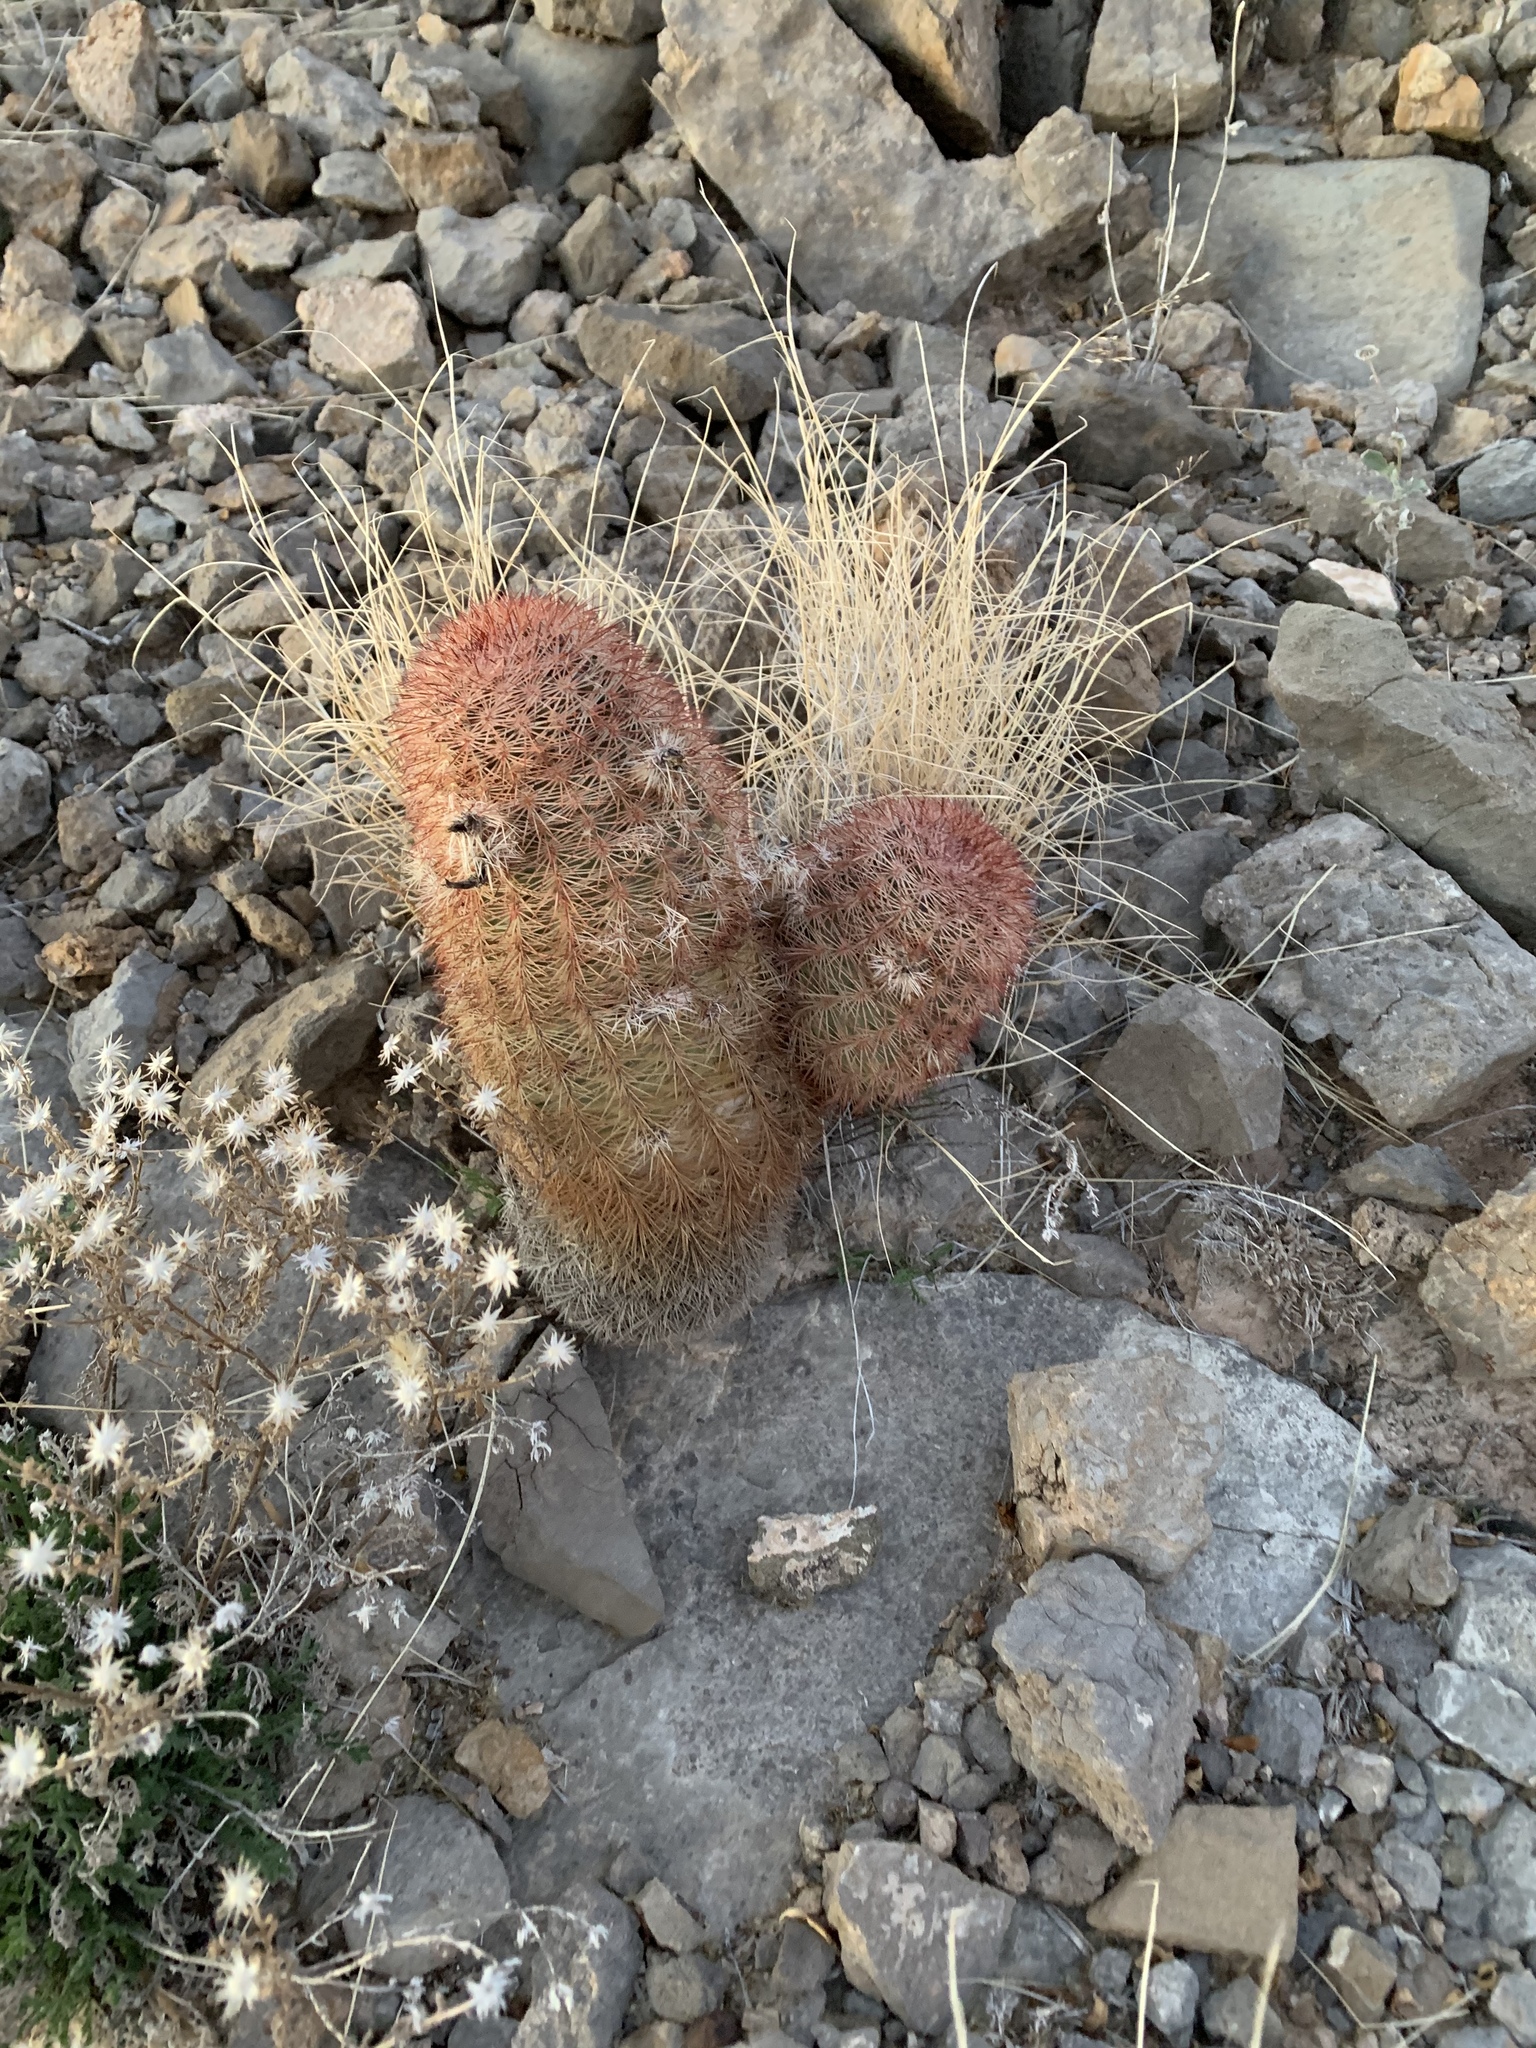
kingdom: Plantae
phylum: Tracheophyta
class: Magnoliopsida
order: Caryophyllales
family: Cactaceae
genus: Echinocereus
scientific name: Echinocereus dasyacanthus
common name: Spiny hedgehog cactus
